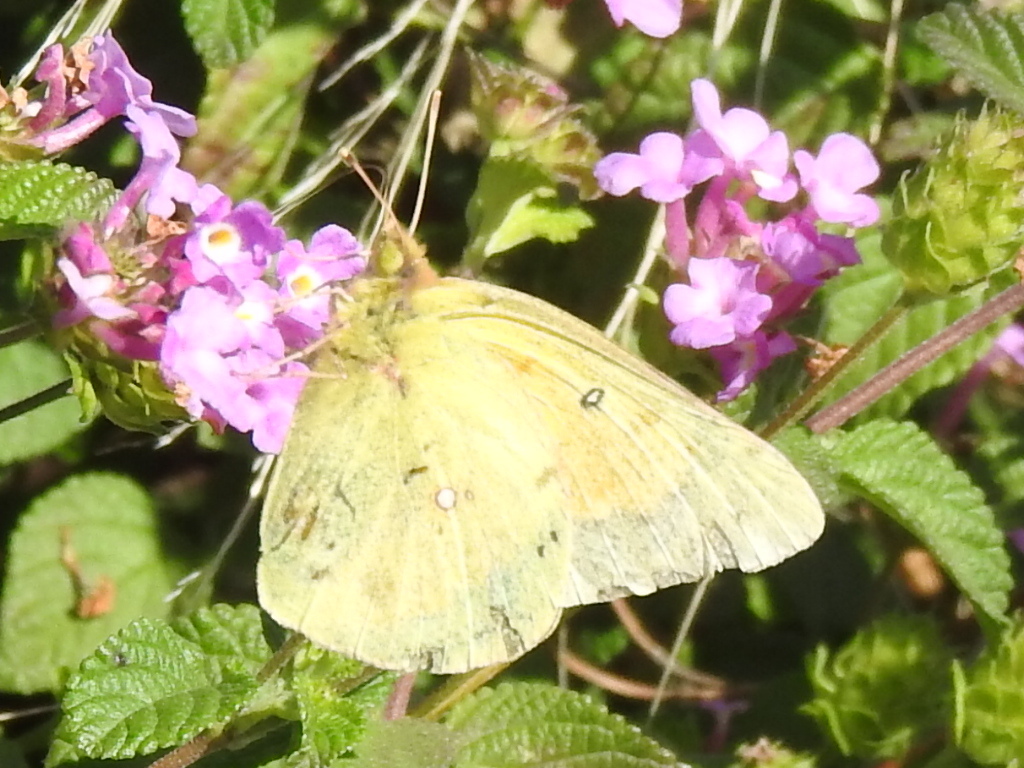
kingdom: Animalia
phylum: Arthropoda
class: Insecta
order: Lepidoptera
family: Pieridae
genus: Colias
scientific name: Colias eurytheme
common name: Alfalfa butterfly
